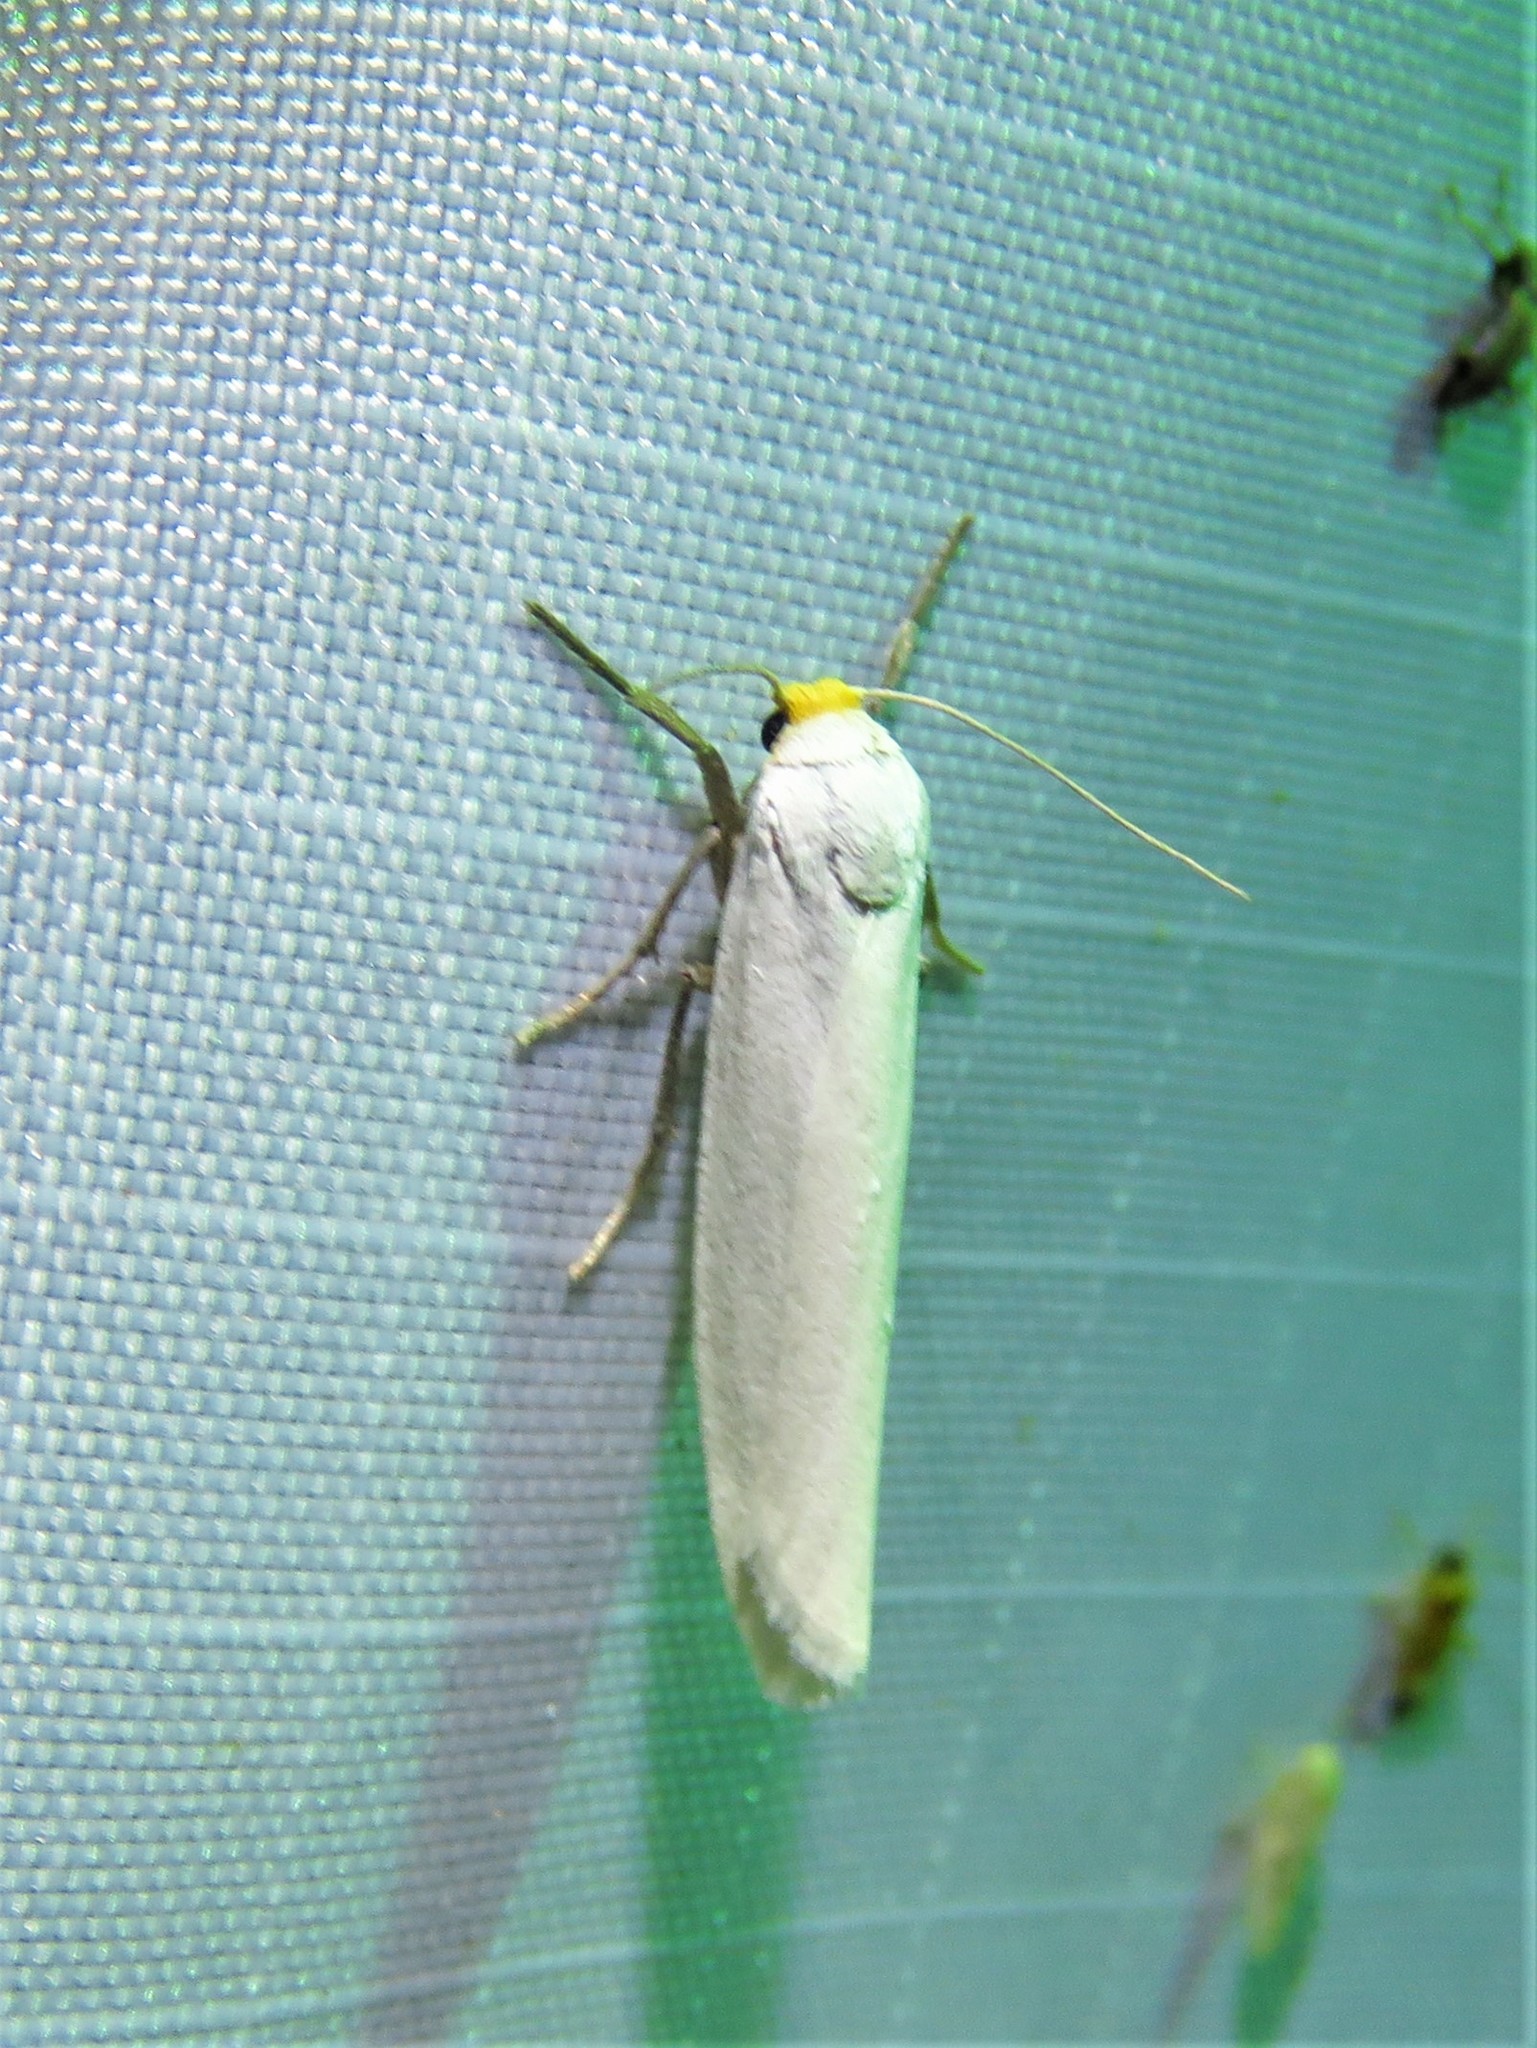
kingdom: Animalia
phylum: Arthropoda
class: Insecta
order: Lepidoptera
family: Erebidae
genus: Crambidia
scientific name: Crambidia cephalica
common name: Yellow-headed lichen moth
